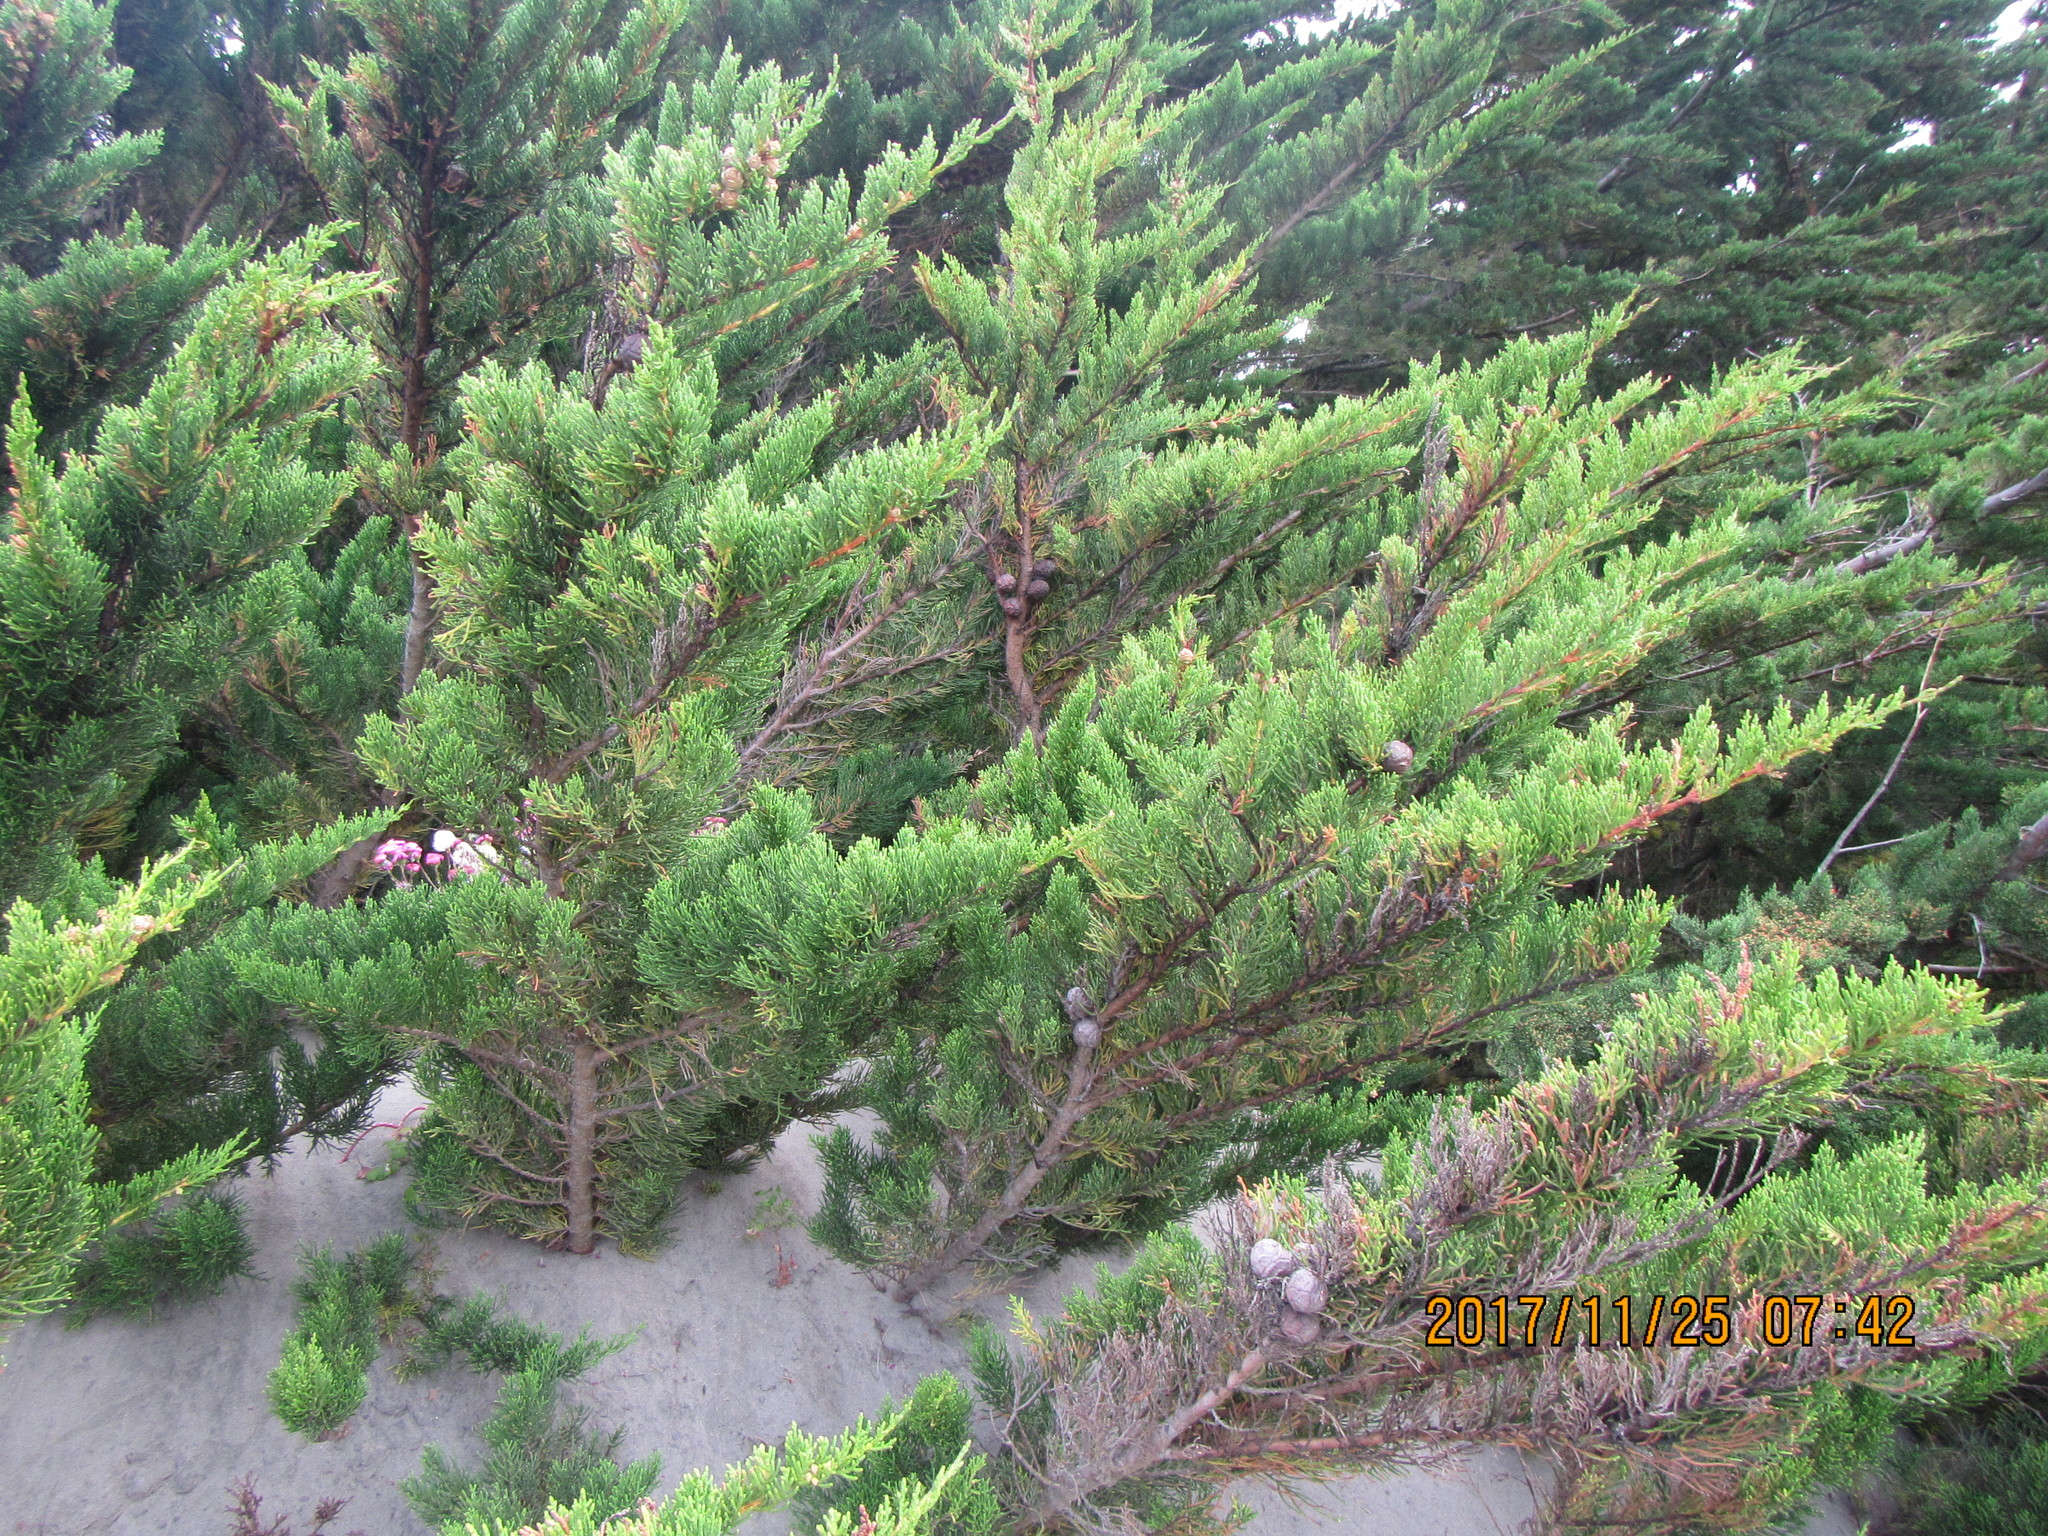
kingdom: Plantae
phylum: Tracheophyta
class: Pinopsida
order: Pinales
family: Cupressaceae
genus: Cupressus
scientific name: Cupressus macrocarpa
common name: Monterey cypress
